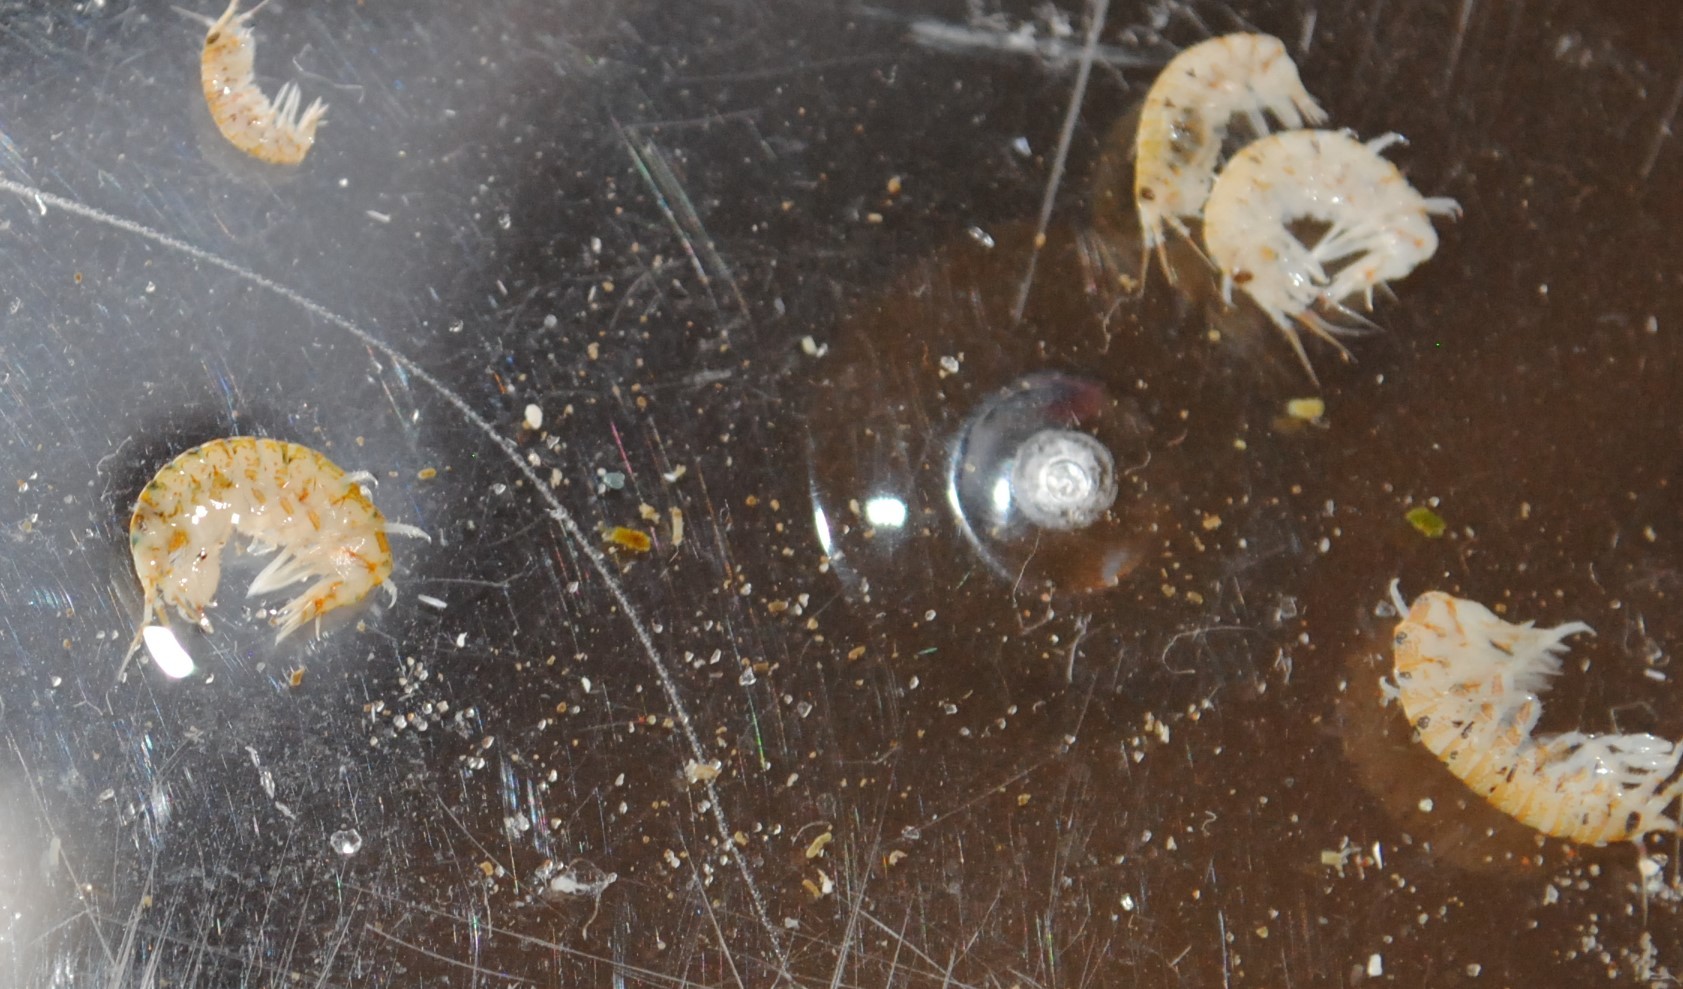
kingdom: Animalia
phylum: Arthropoda
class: Malacostraca
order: Amphipoda
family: Calliopiidae
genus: Calliopius
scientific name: Calliopius laeviusculus
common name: Planktonic amphipod
